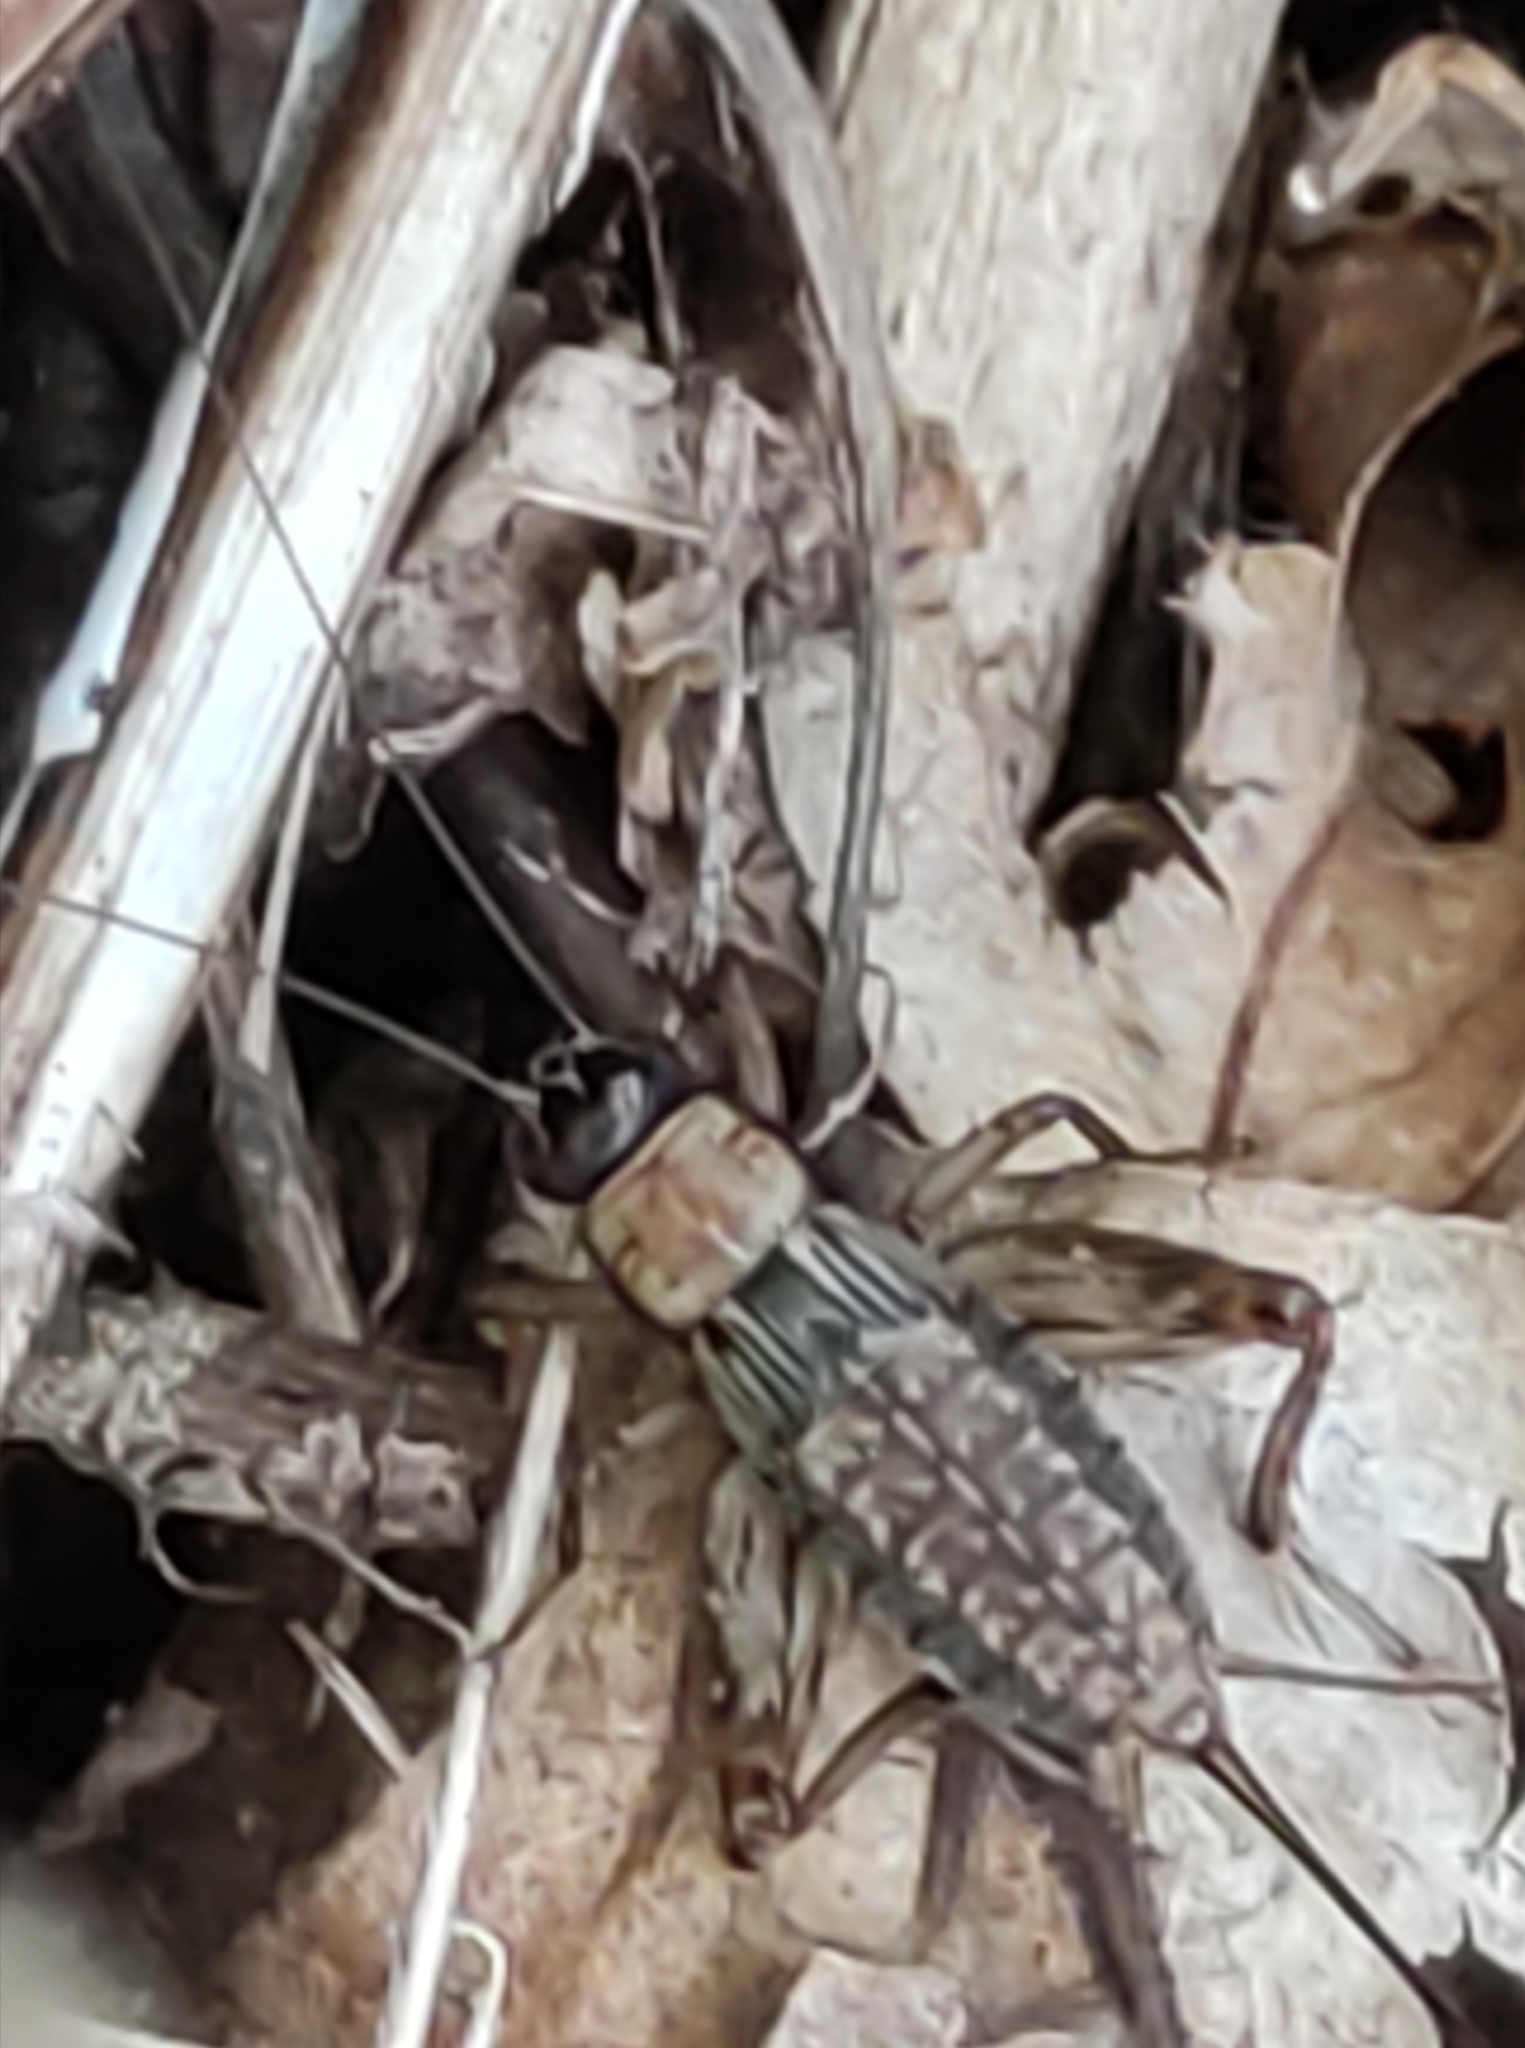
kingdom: Animalia
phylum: Arthropoda
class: Insecta
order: Orthoptera
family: Trigonidiidae
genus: Nemobius
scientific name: Nemobius sylvestris
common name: Wood-cricket
